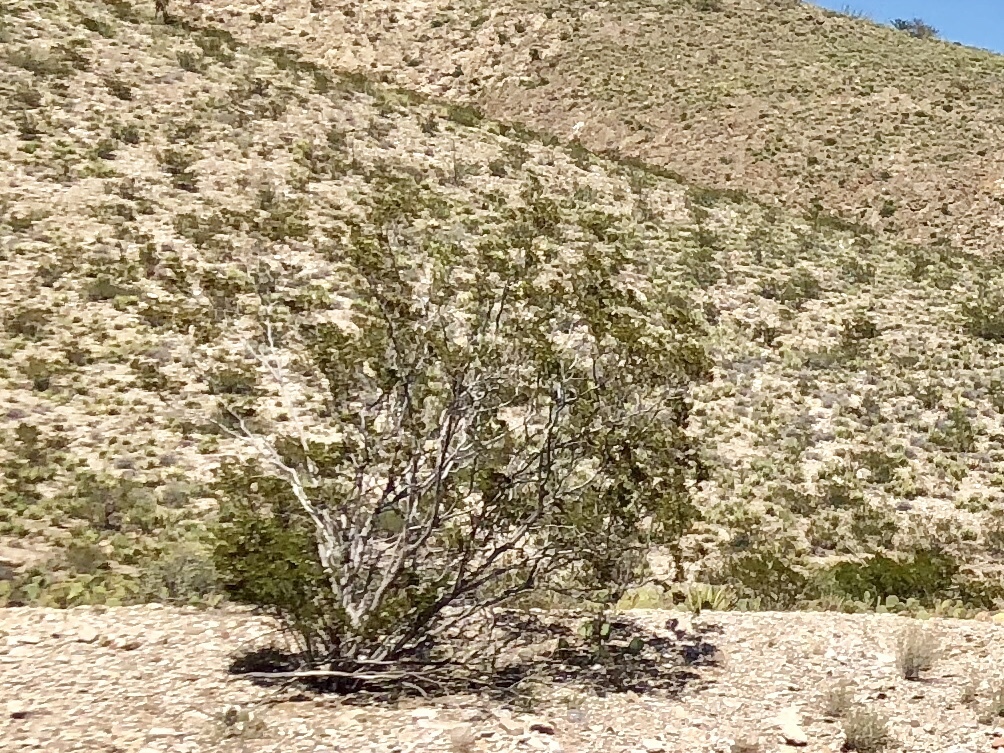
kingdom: Plantae
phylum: Tracheophyta
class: Magnoliopsida
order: Zygophyllales
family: Zygophyllaceae
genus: Larrea
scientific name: Larrea tridentata
